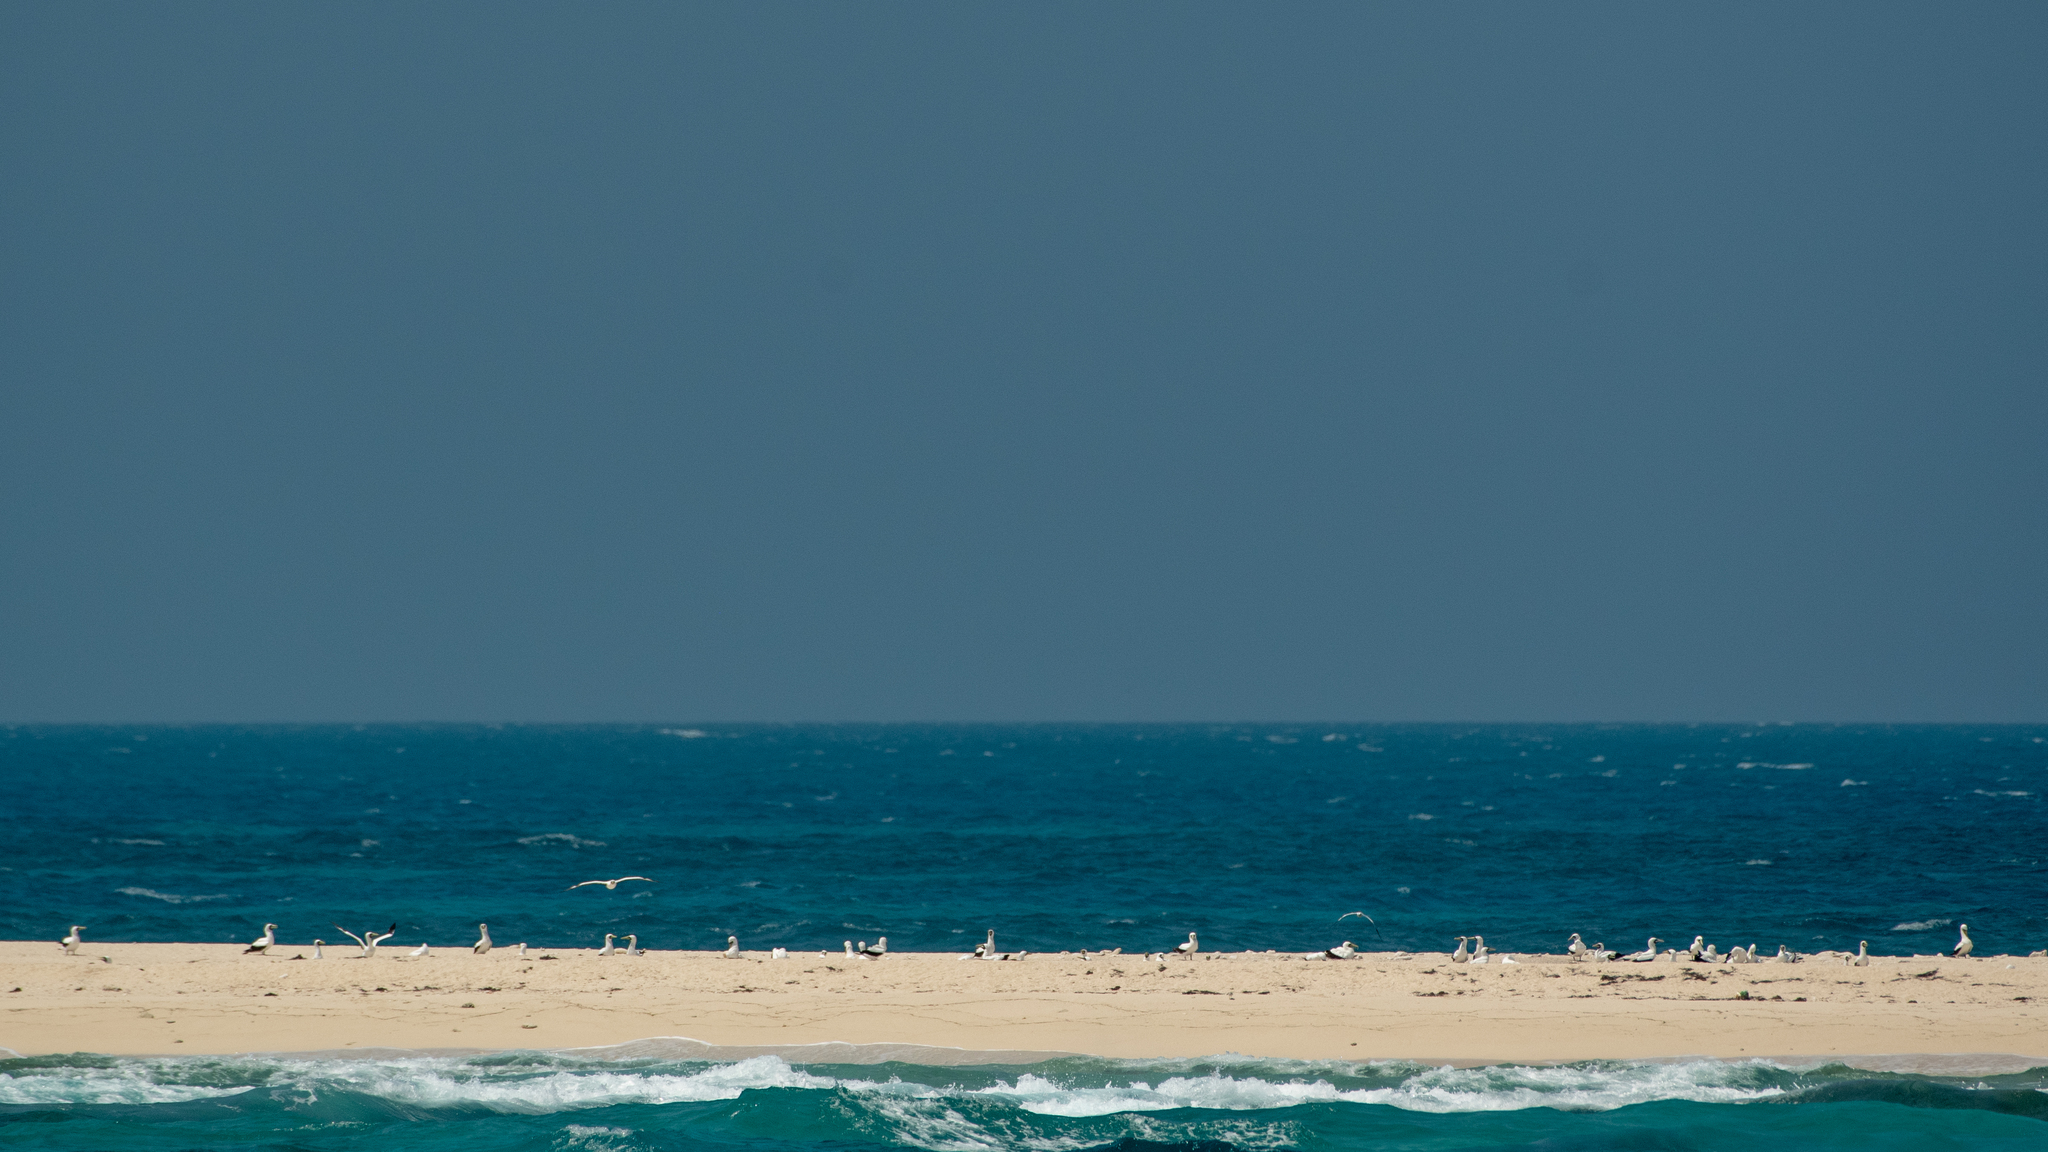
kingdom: Animalia
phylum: Chordata
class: Aves
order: Suliformes
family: Sulidae
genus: Sula
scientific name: Sula dactylatra
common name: Masked booby
